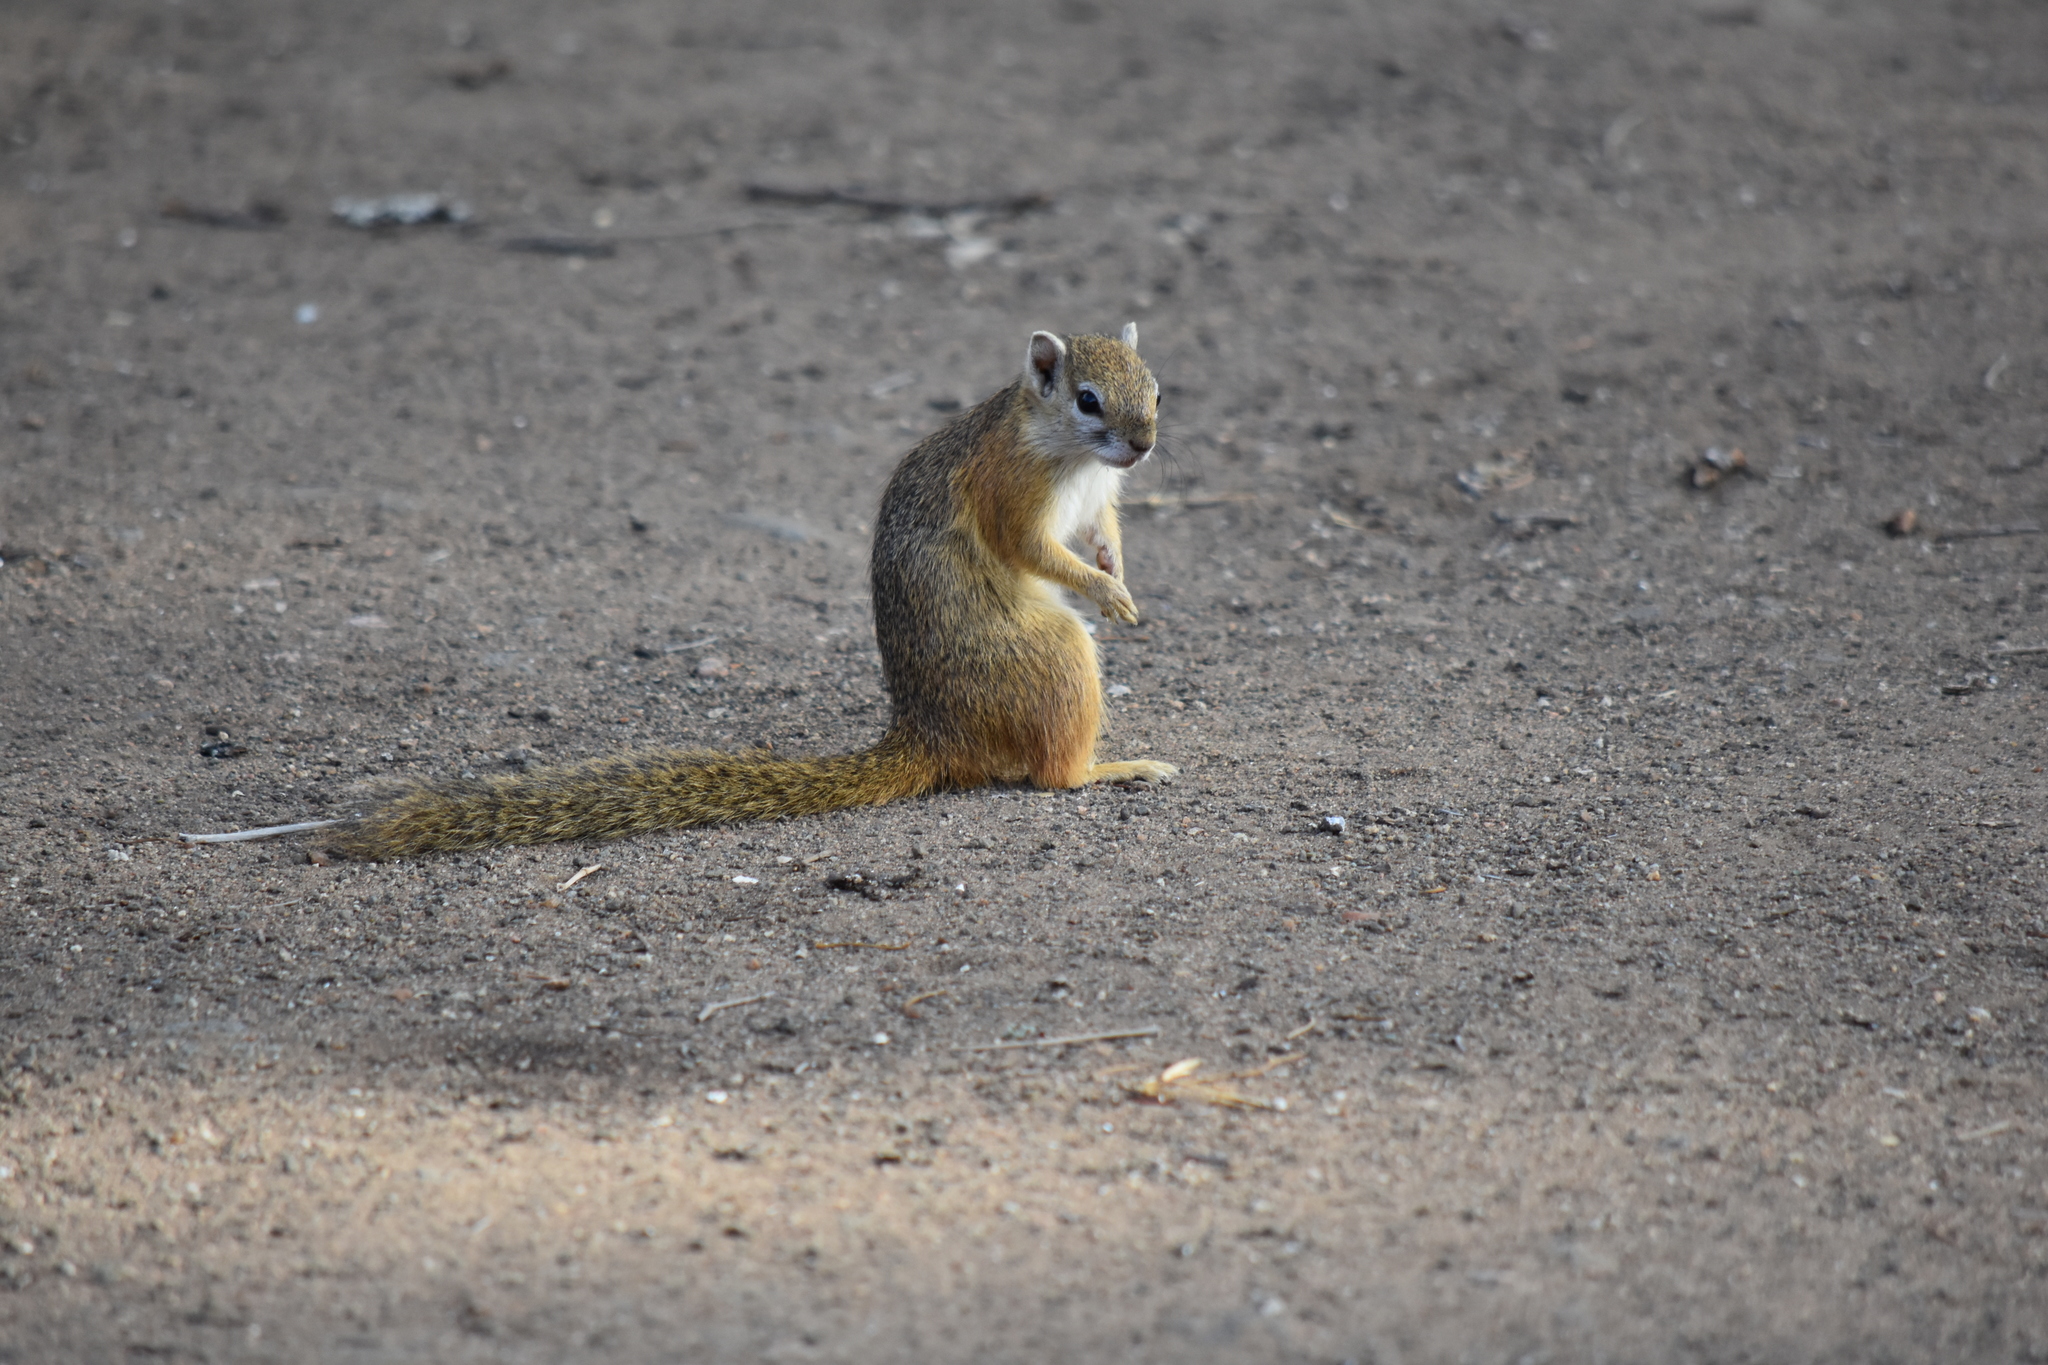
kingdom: Animalia
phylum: Chordata
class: Mammalia
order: Rodentia
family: Sciuridae
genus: Paraxerus
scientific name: Paraxerus cepapi
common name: Smith's bush squirrel
